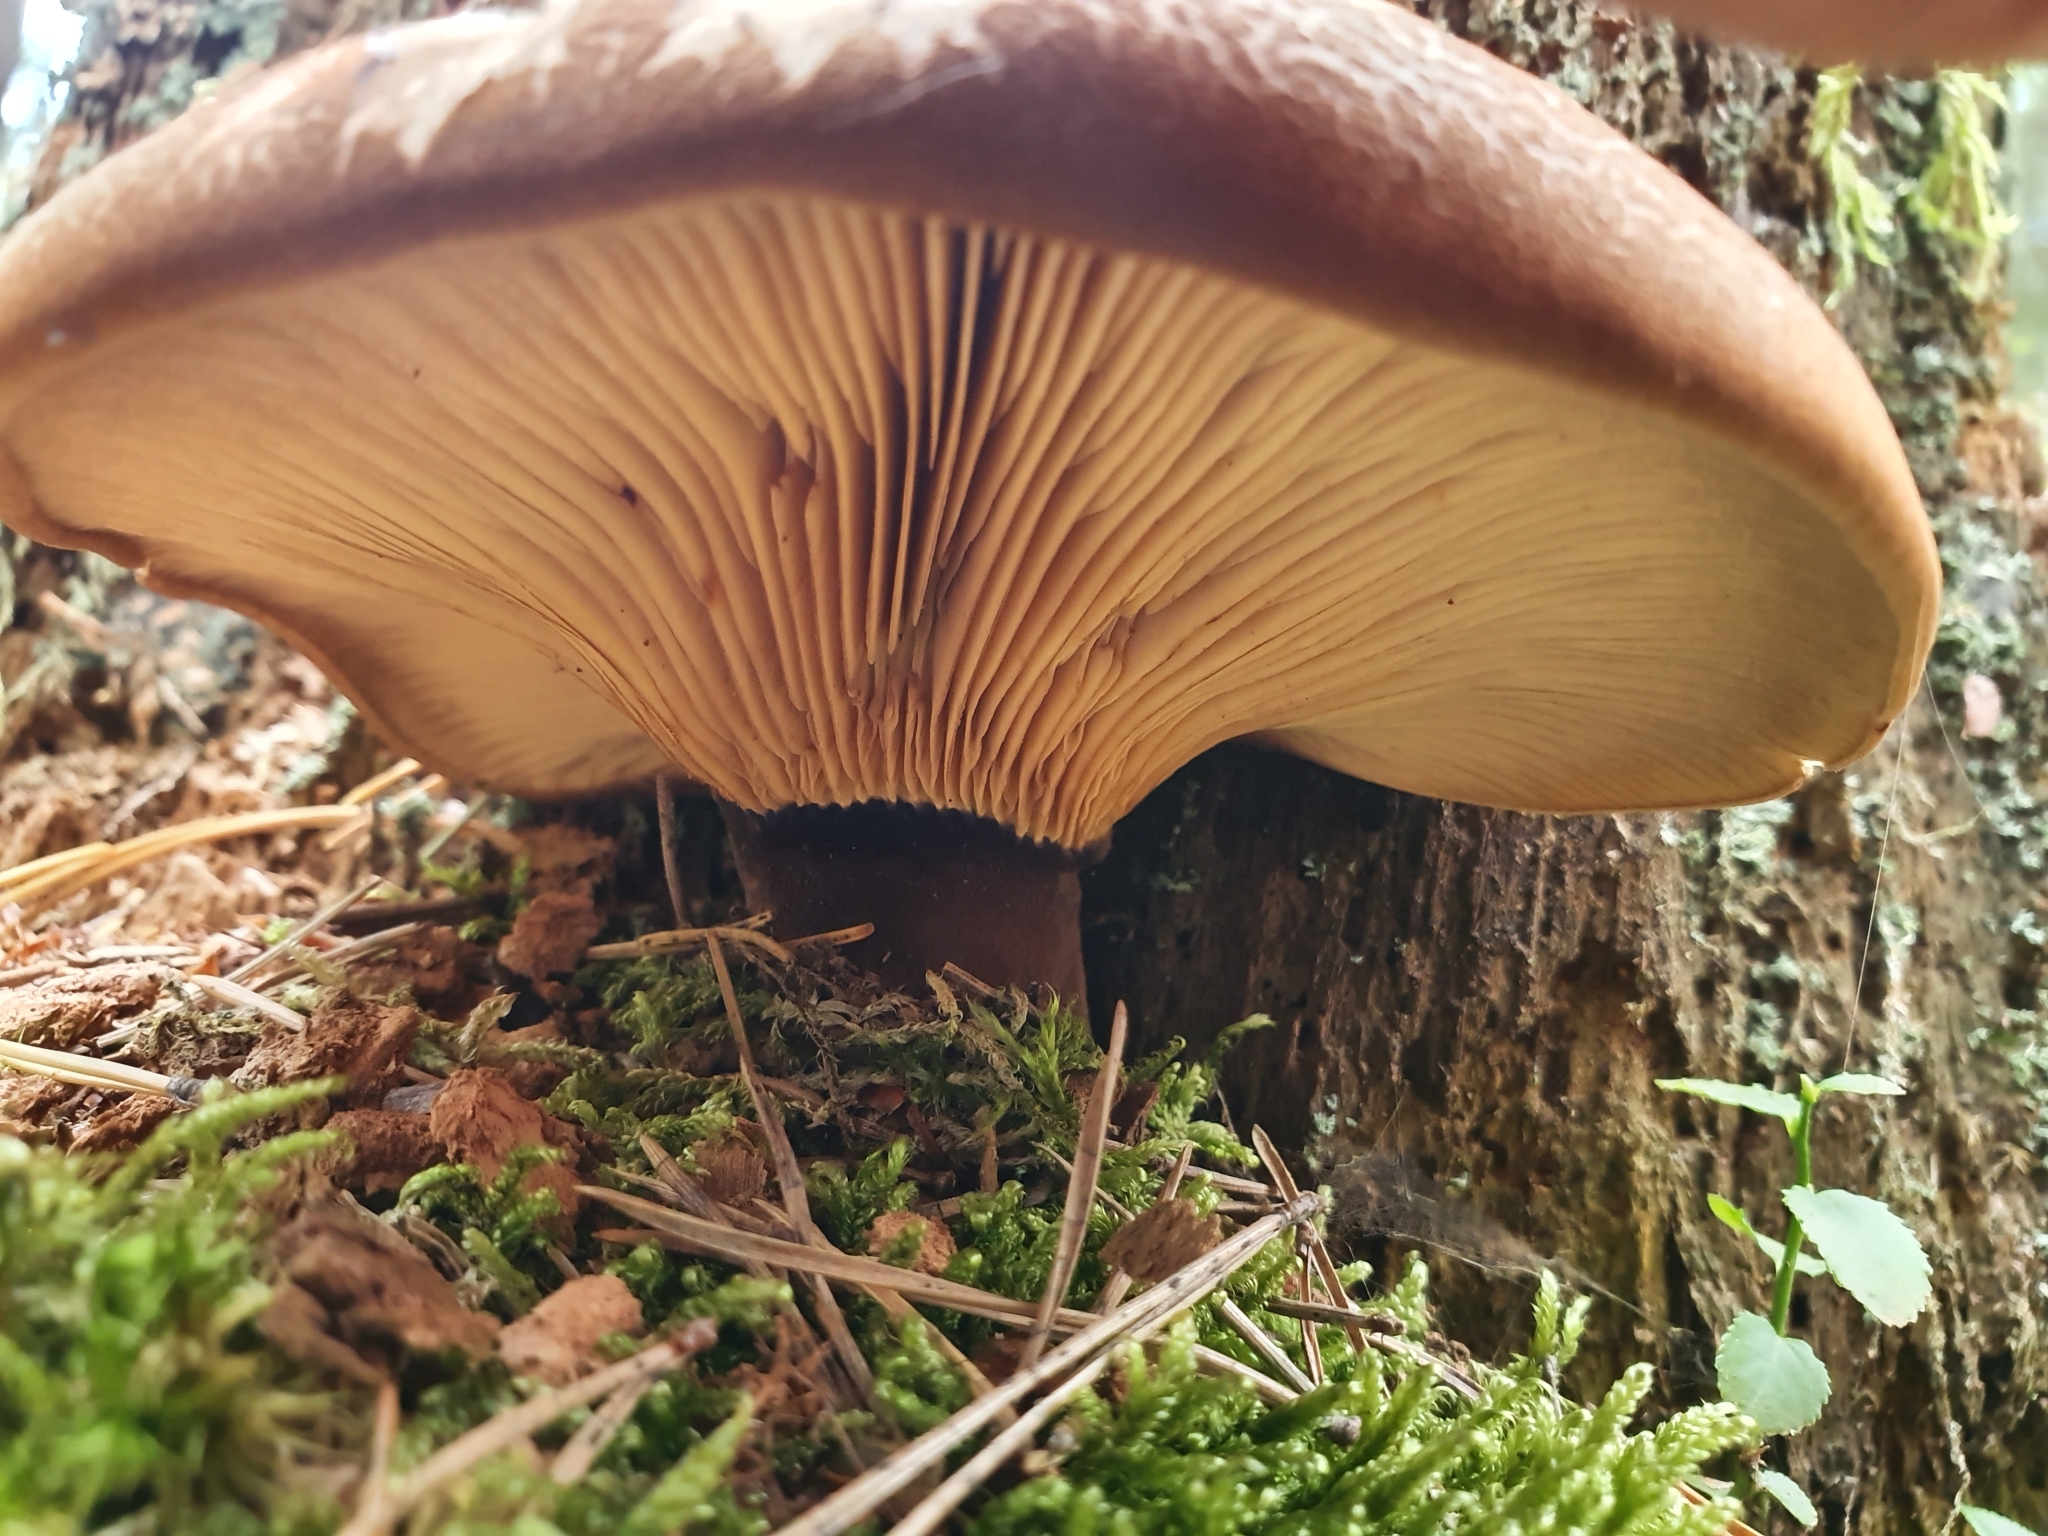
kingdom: Fungi
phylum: Basidiomycota
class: Agaricomycetes
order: Boletales
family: Tapinellaceae
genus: Tapinella
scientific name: Tapinella atrotomentosa
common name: Velvet rollrim
